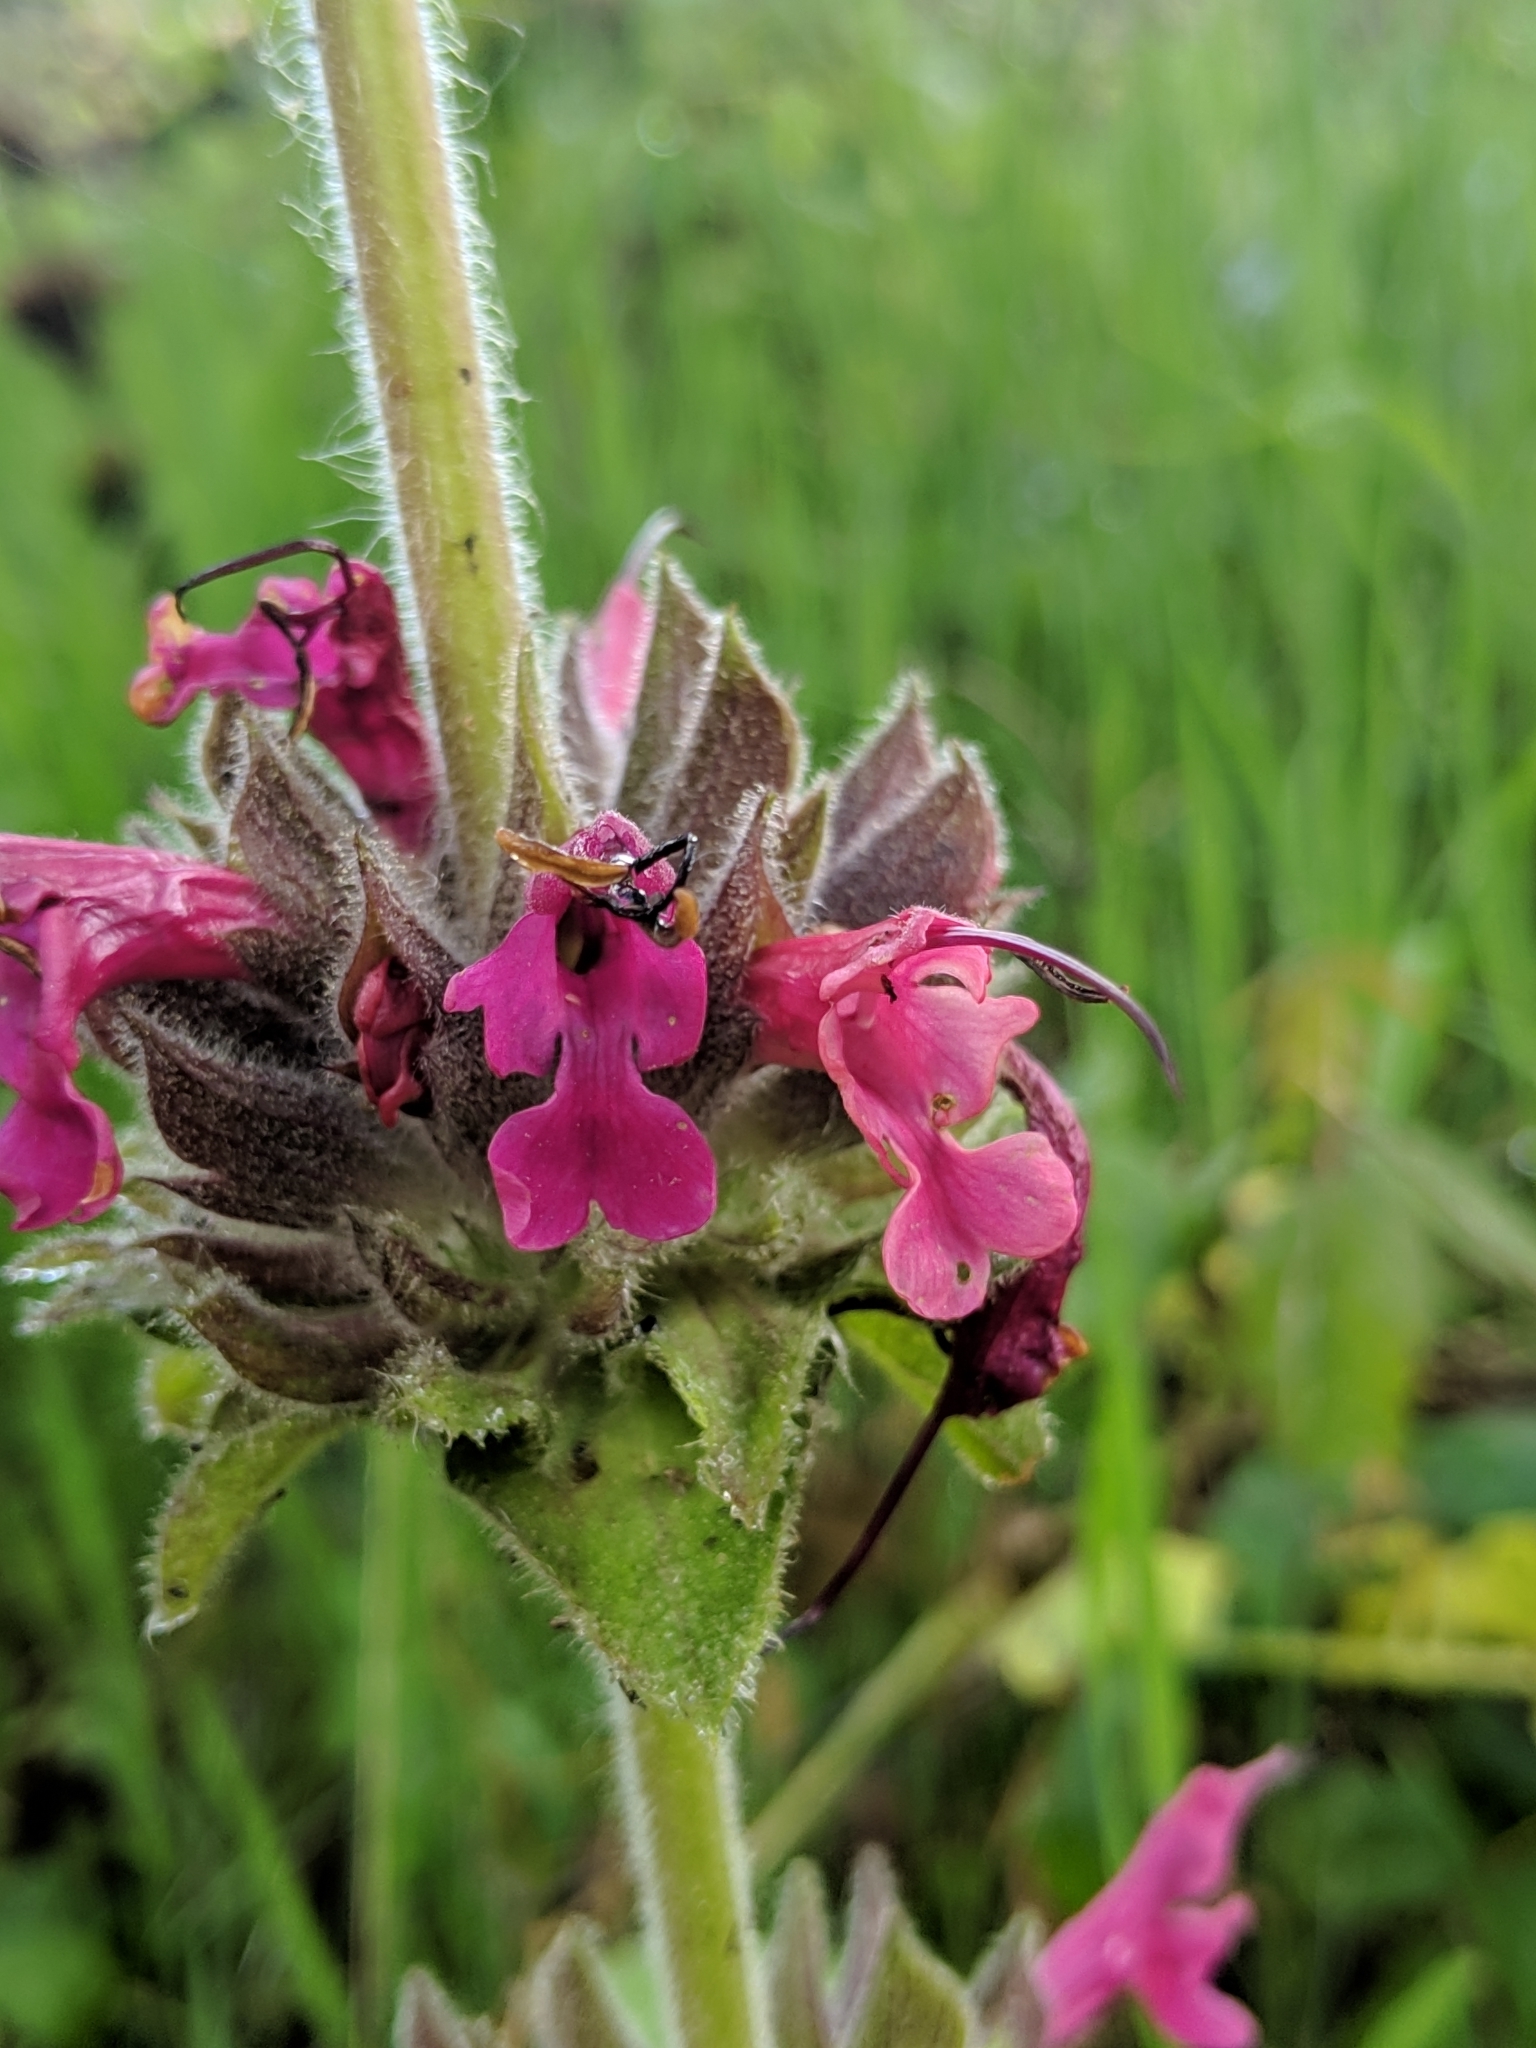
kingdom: Plantae
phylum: Tracheophyta
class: Magnoliopsida
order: Lamiales
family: Lamiaceae
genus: Salvia
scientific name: Salvia spathacea
